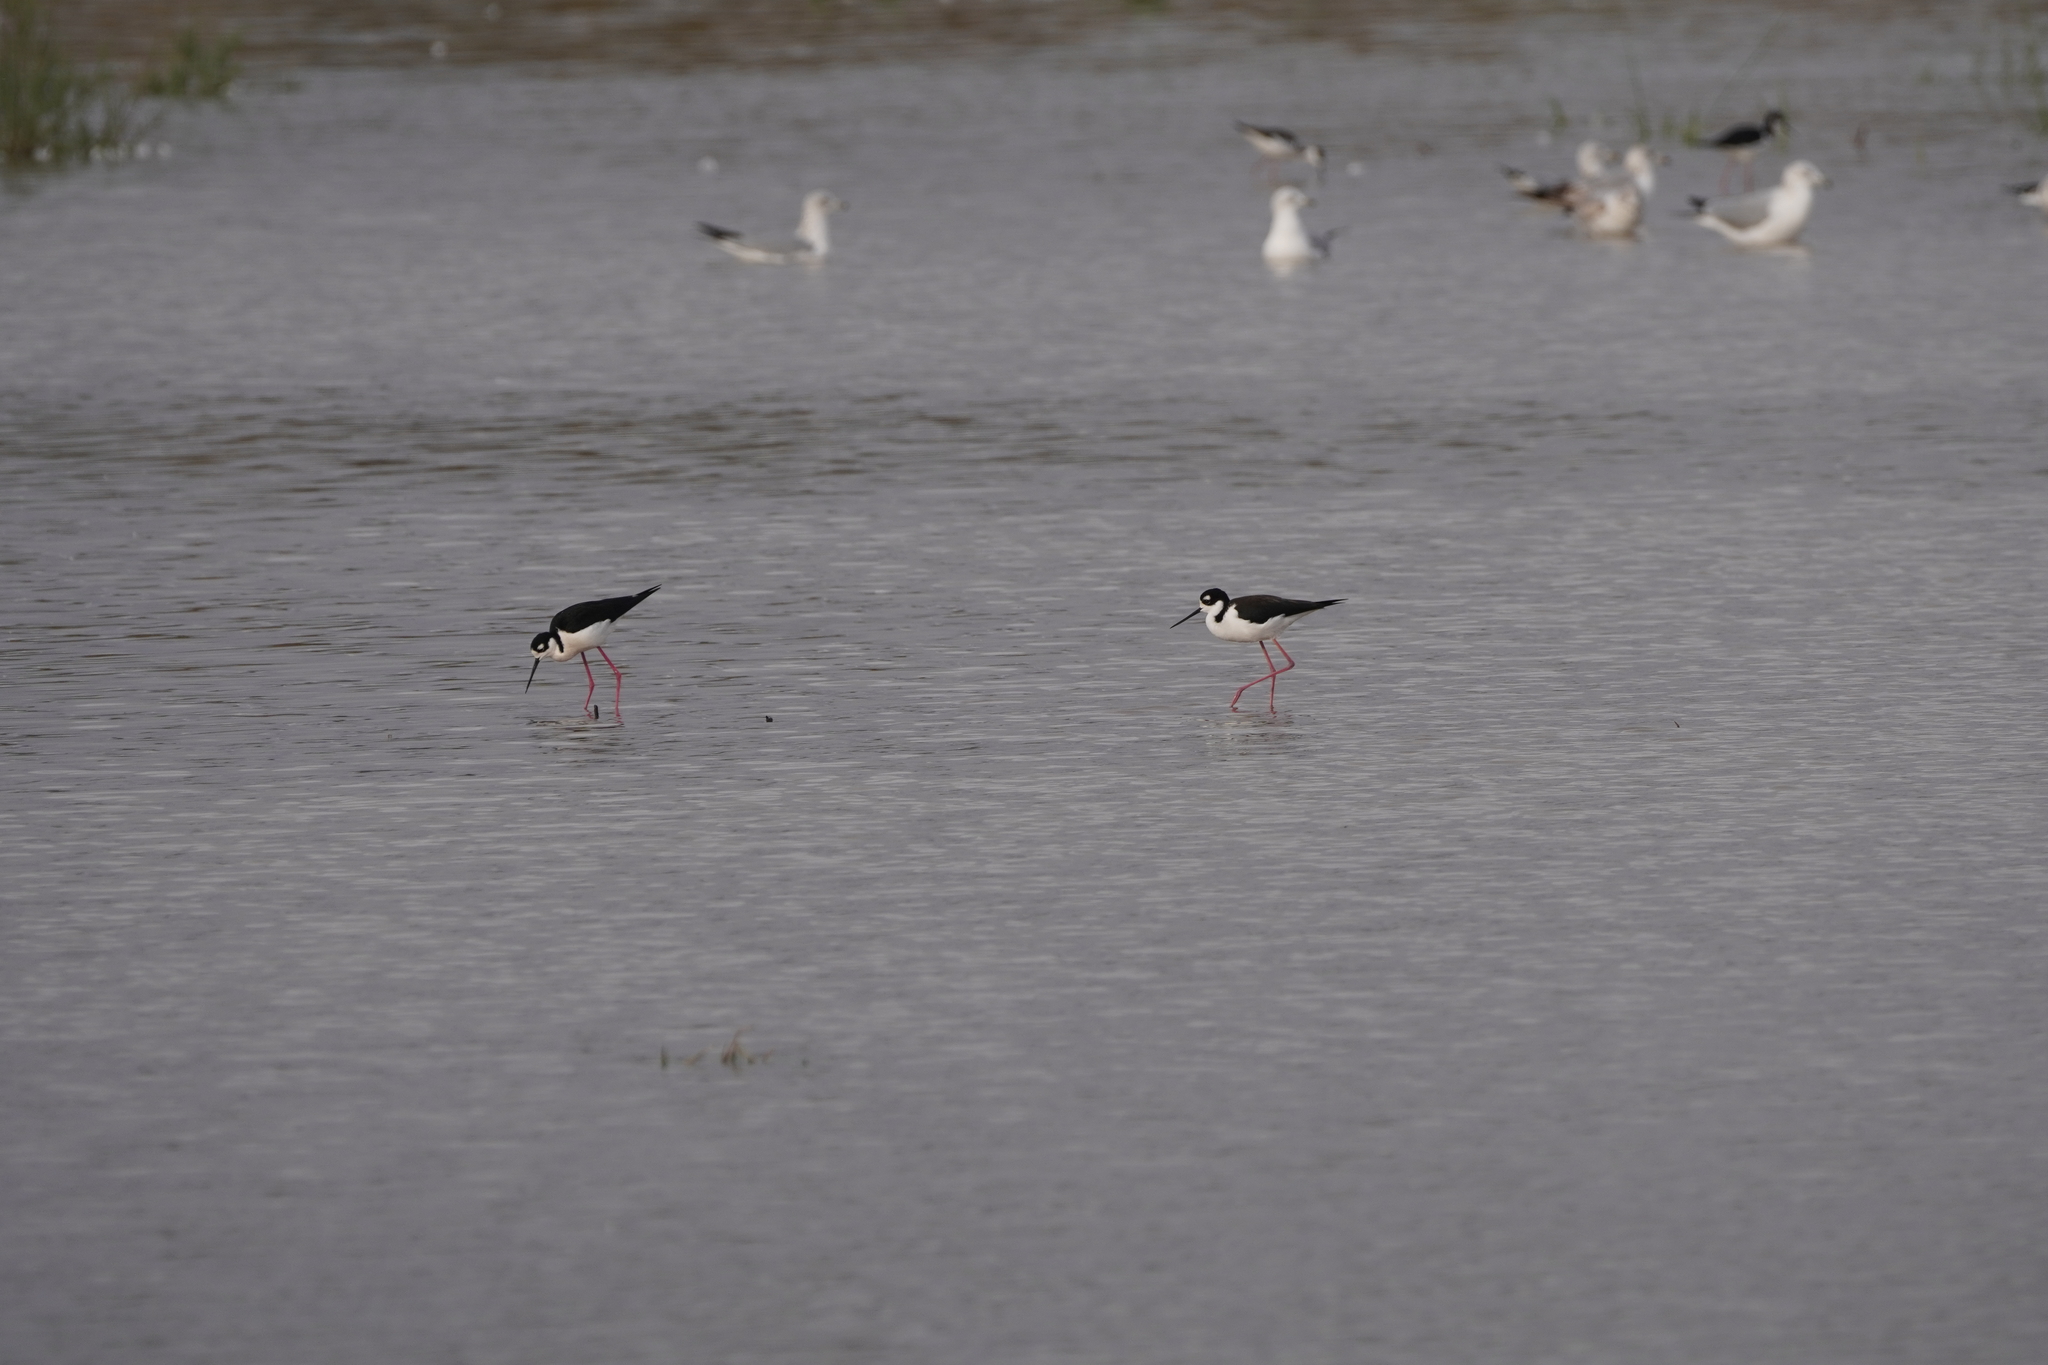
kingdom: Animalia
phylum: Chordata
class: Aves
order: Charadriiformes
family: Recurvirostridae
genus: Himantopus
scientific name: Himantopus mexicanus
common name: Black-necked stilt
